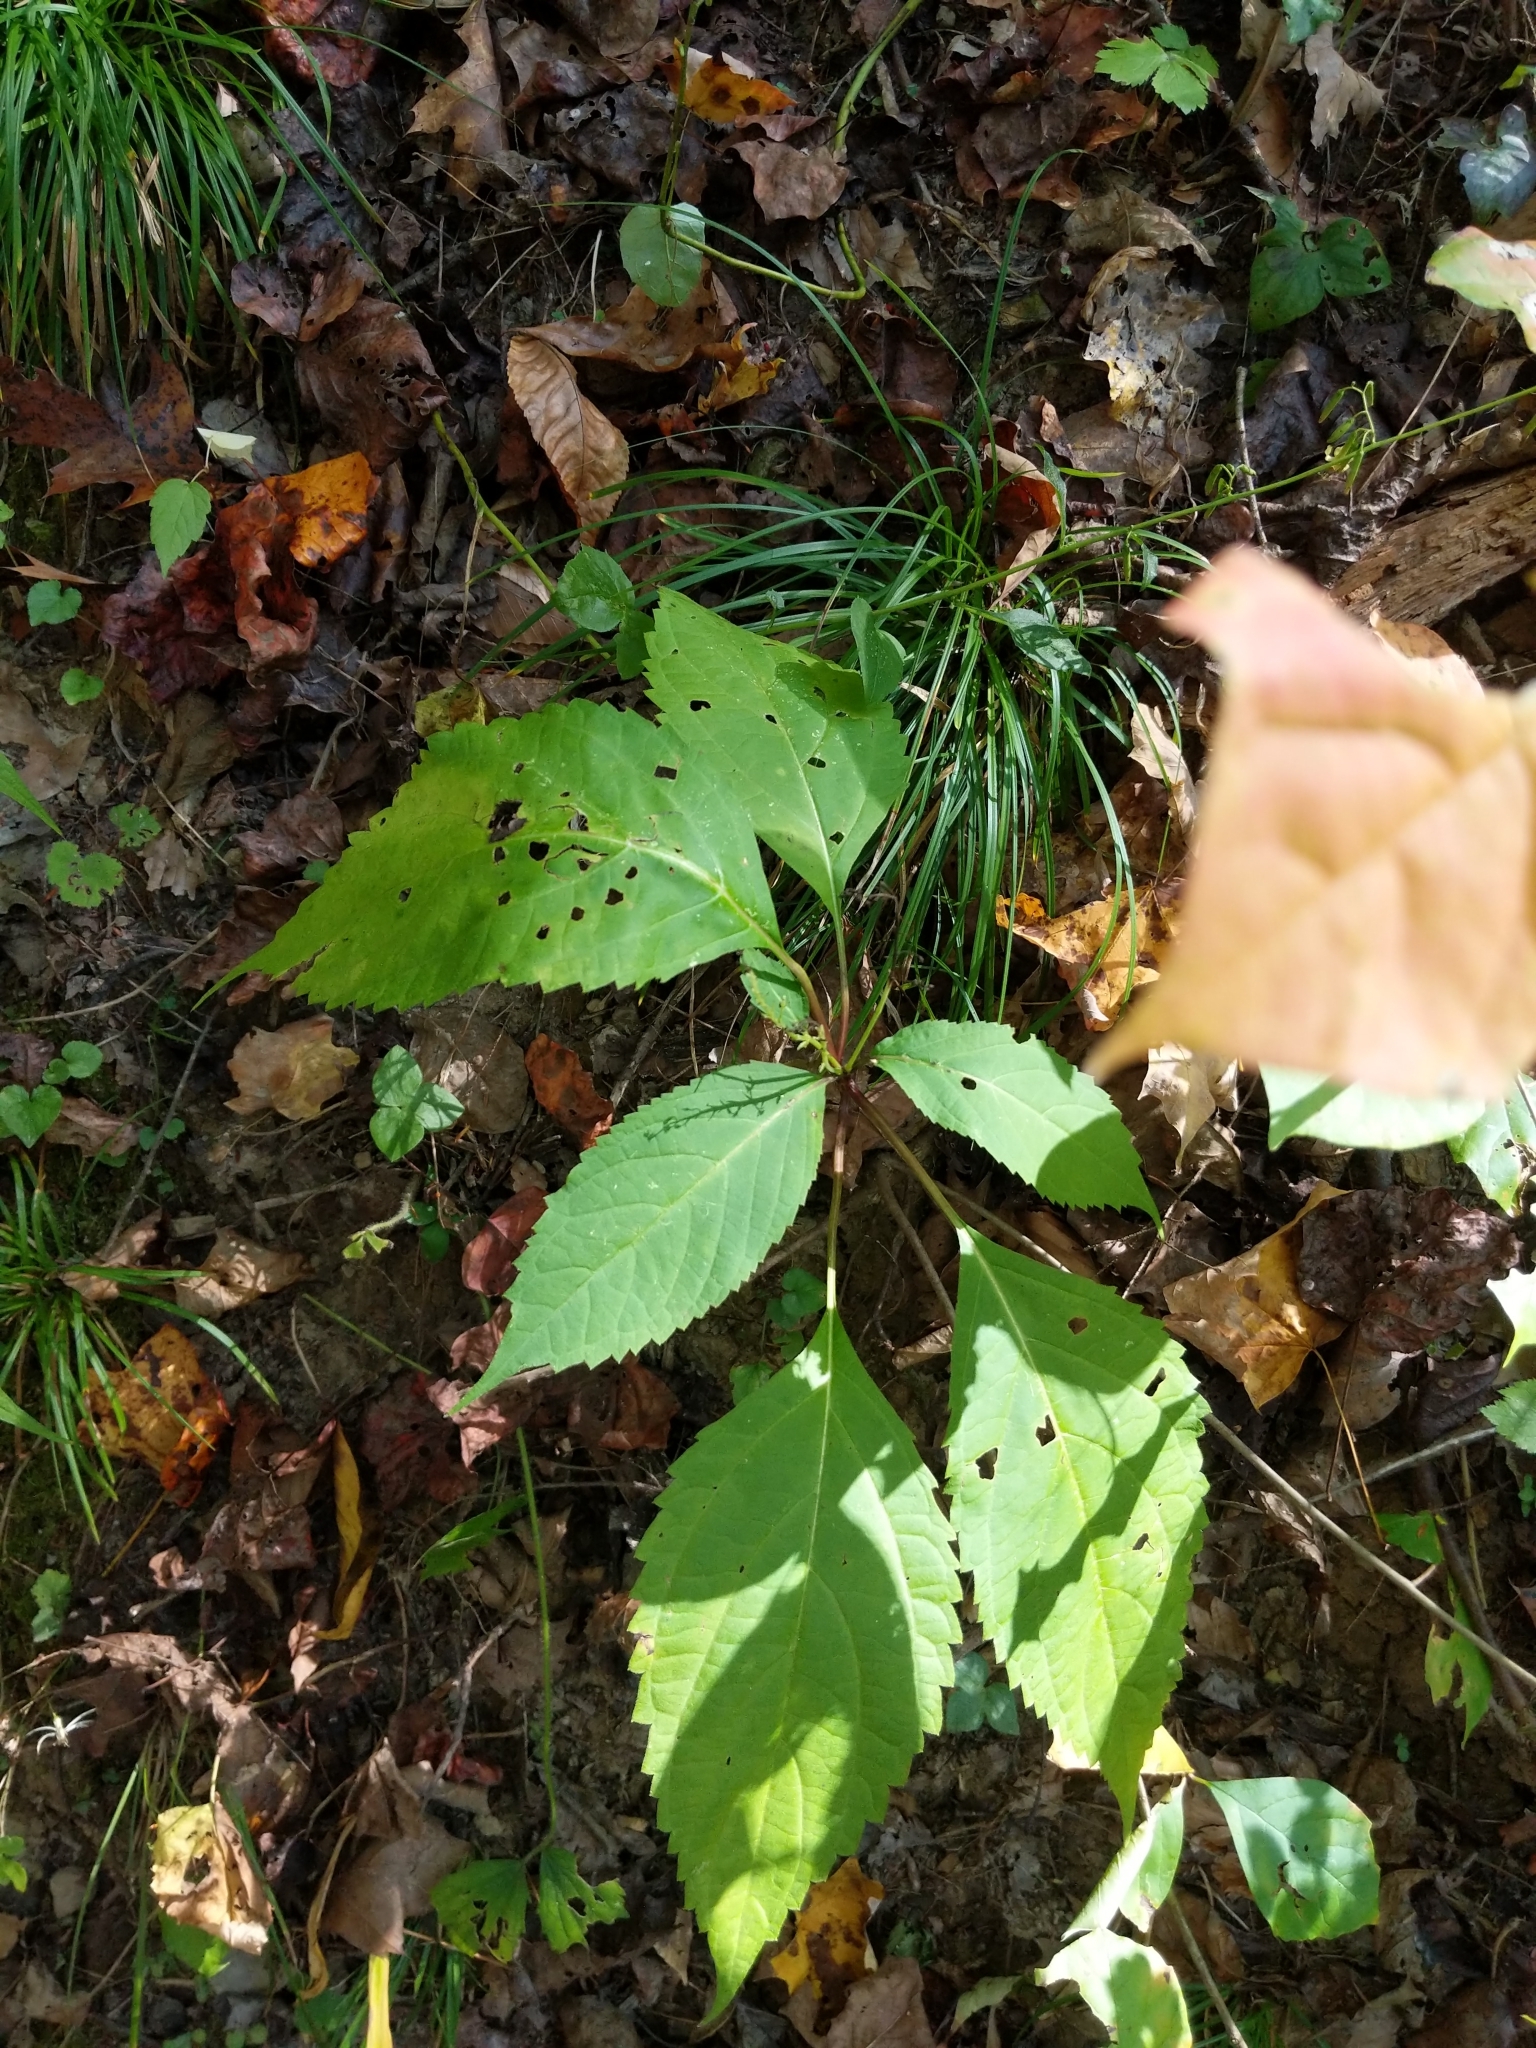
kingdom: Plantae
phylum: Tracheophyta
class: Magnoliopsida
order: Lamiales
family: Lamiaceae
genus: Collinsonia
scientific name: Collinsonia canadensis
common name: Northern horsebalm
